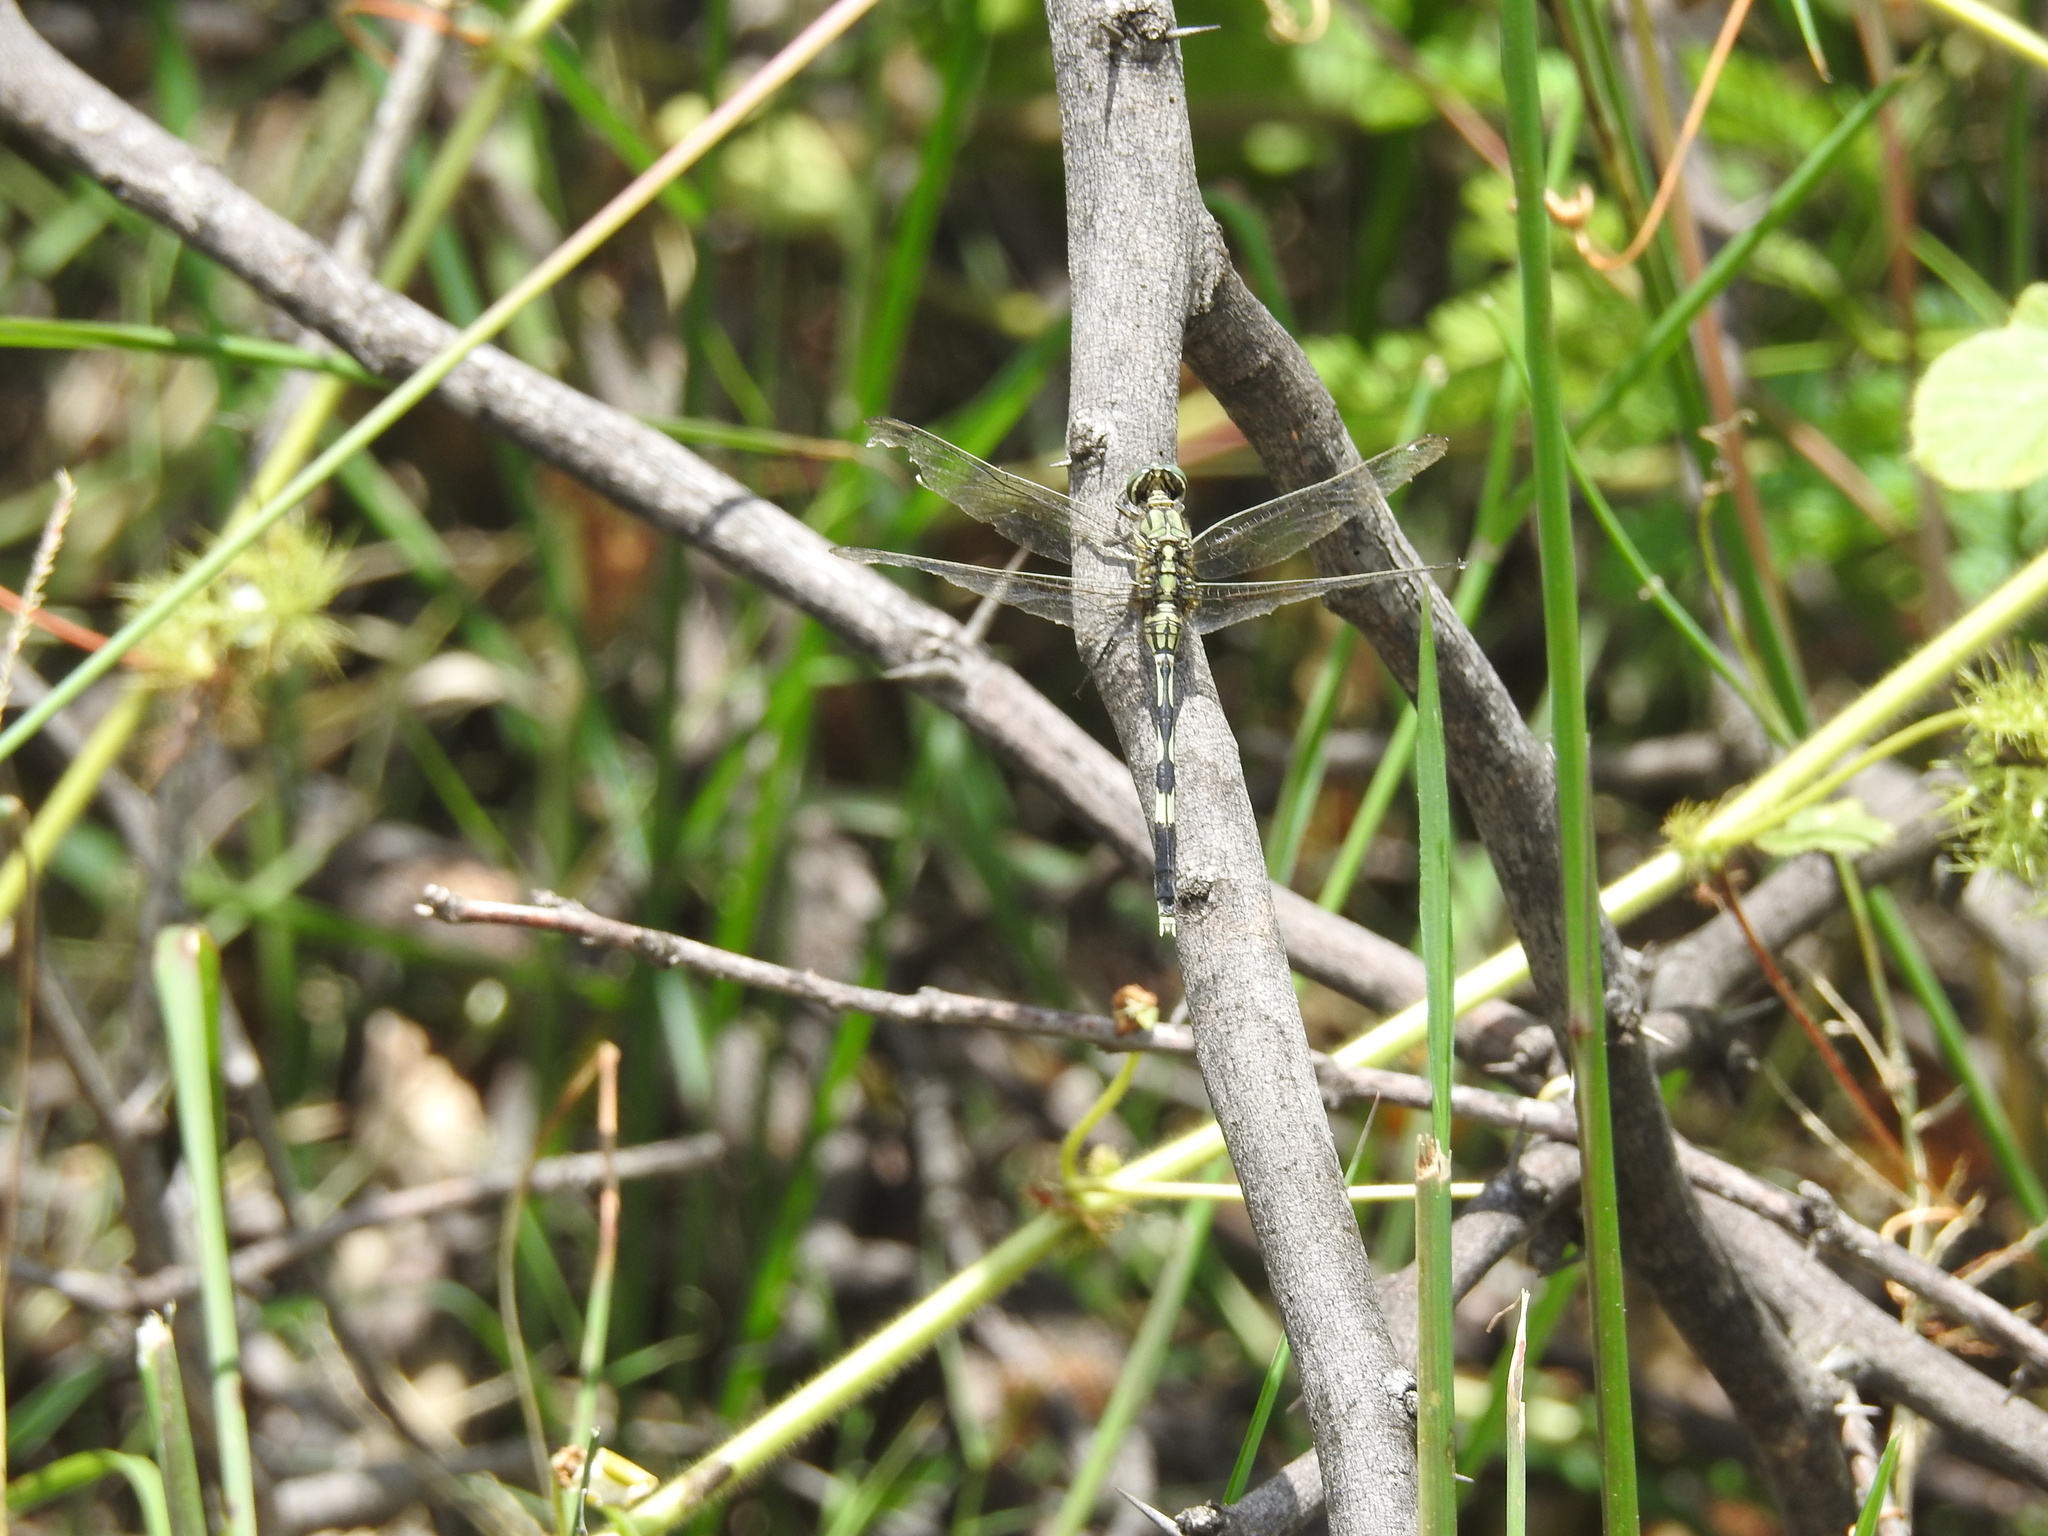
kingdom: Animalia
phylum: Arthropoda
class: Insecta
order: Odonata
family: Libellulidae
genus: Orthetrum
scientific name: Orthetrum sabina
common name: Slender skimmer
